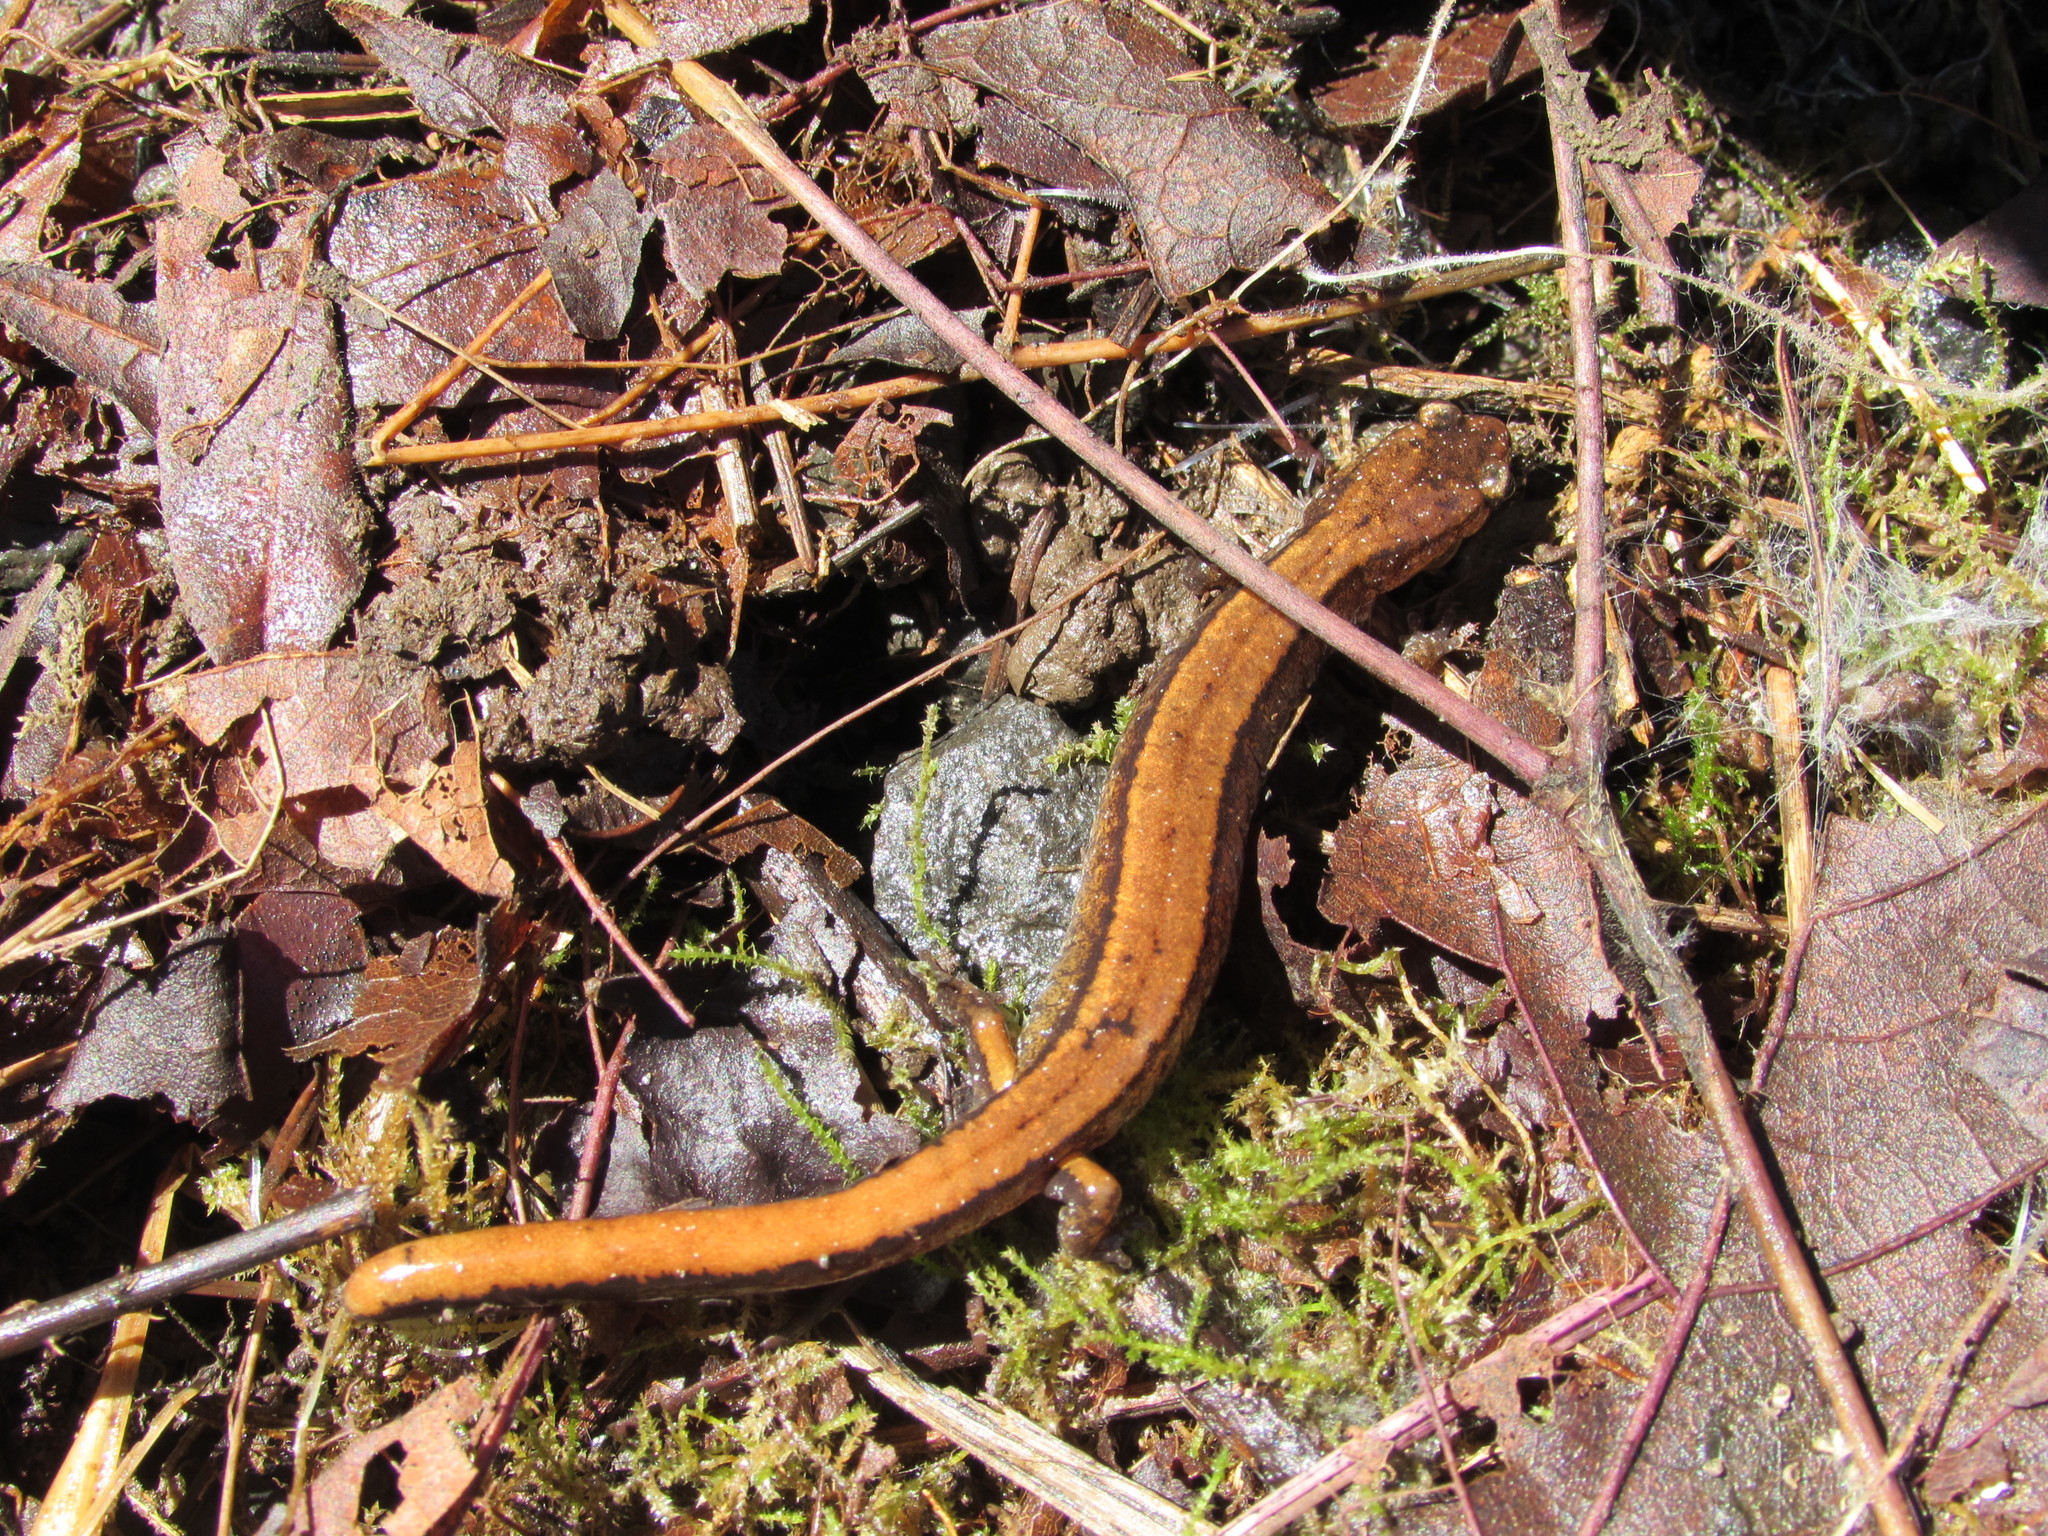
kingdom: Animalia
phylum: Chordata
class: Amphibia
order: Caudata
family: Plethodontidae
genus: Plethodon
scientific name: Plethodon vehiculum
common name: Western red-backed salamander
